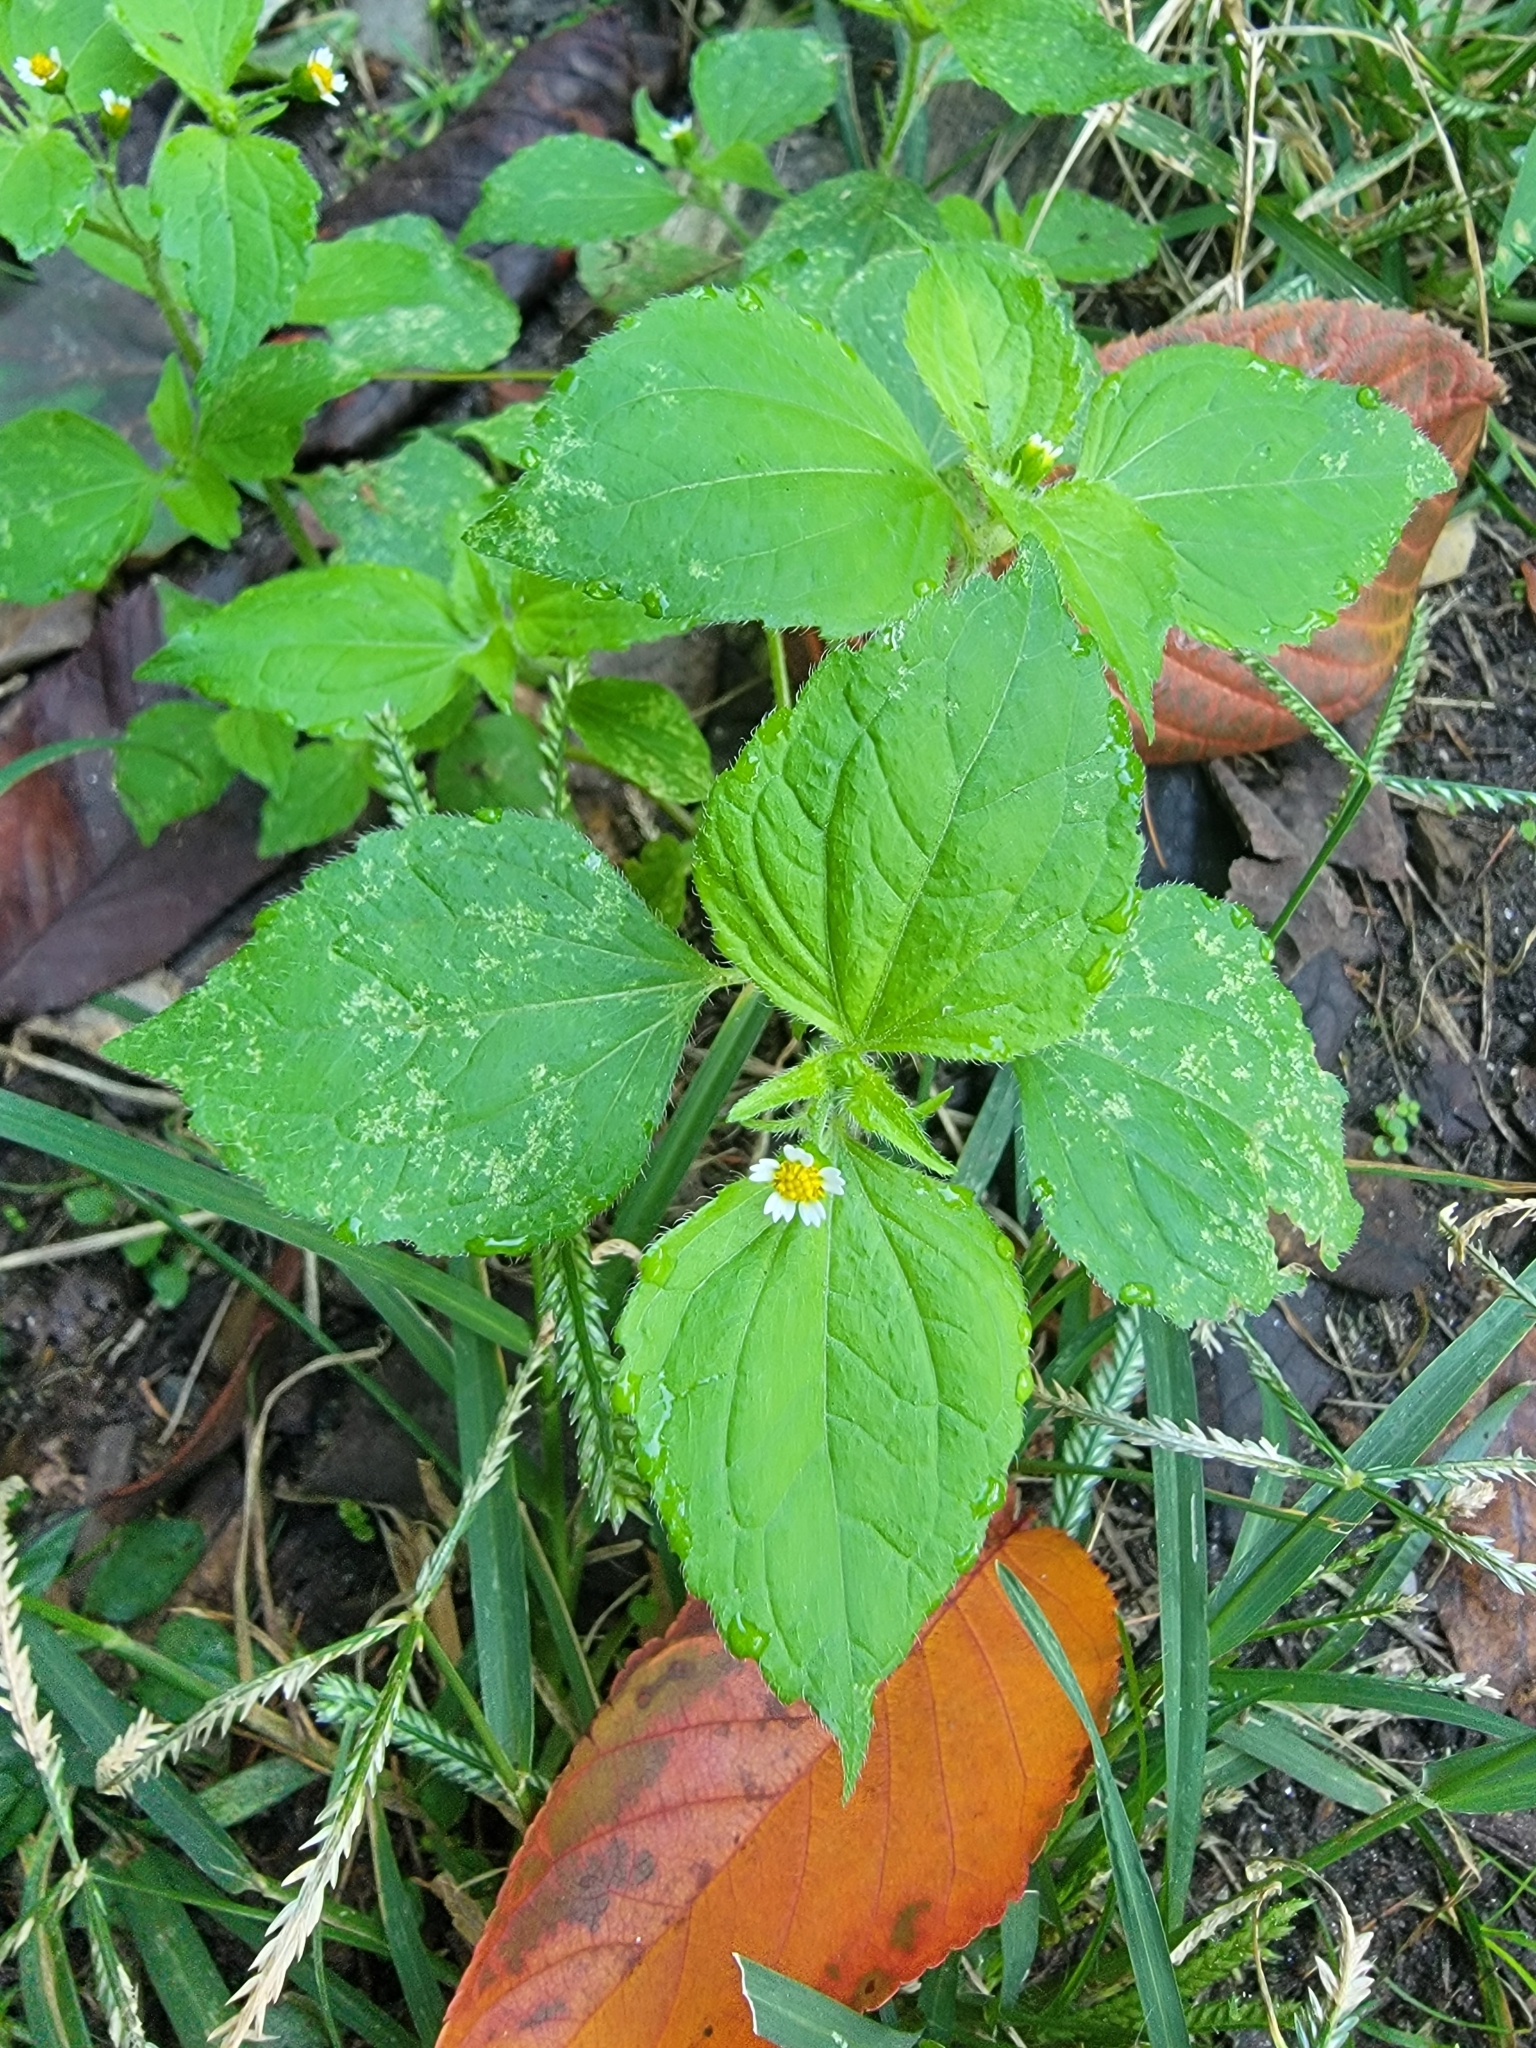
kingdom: Plantae
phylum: Tracheophyta
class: Magnoliopsida
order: Asterales
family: Asteraceae
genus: Galinsoga
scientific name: Galinsoga quadriradiata
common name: Shaggy soldier
